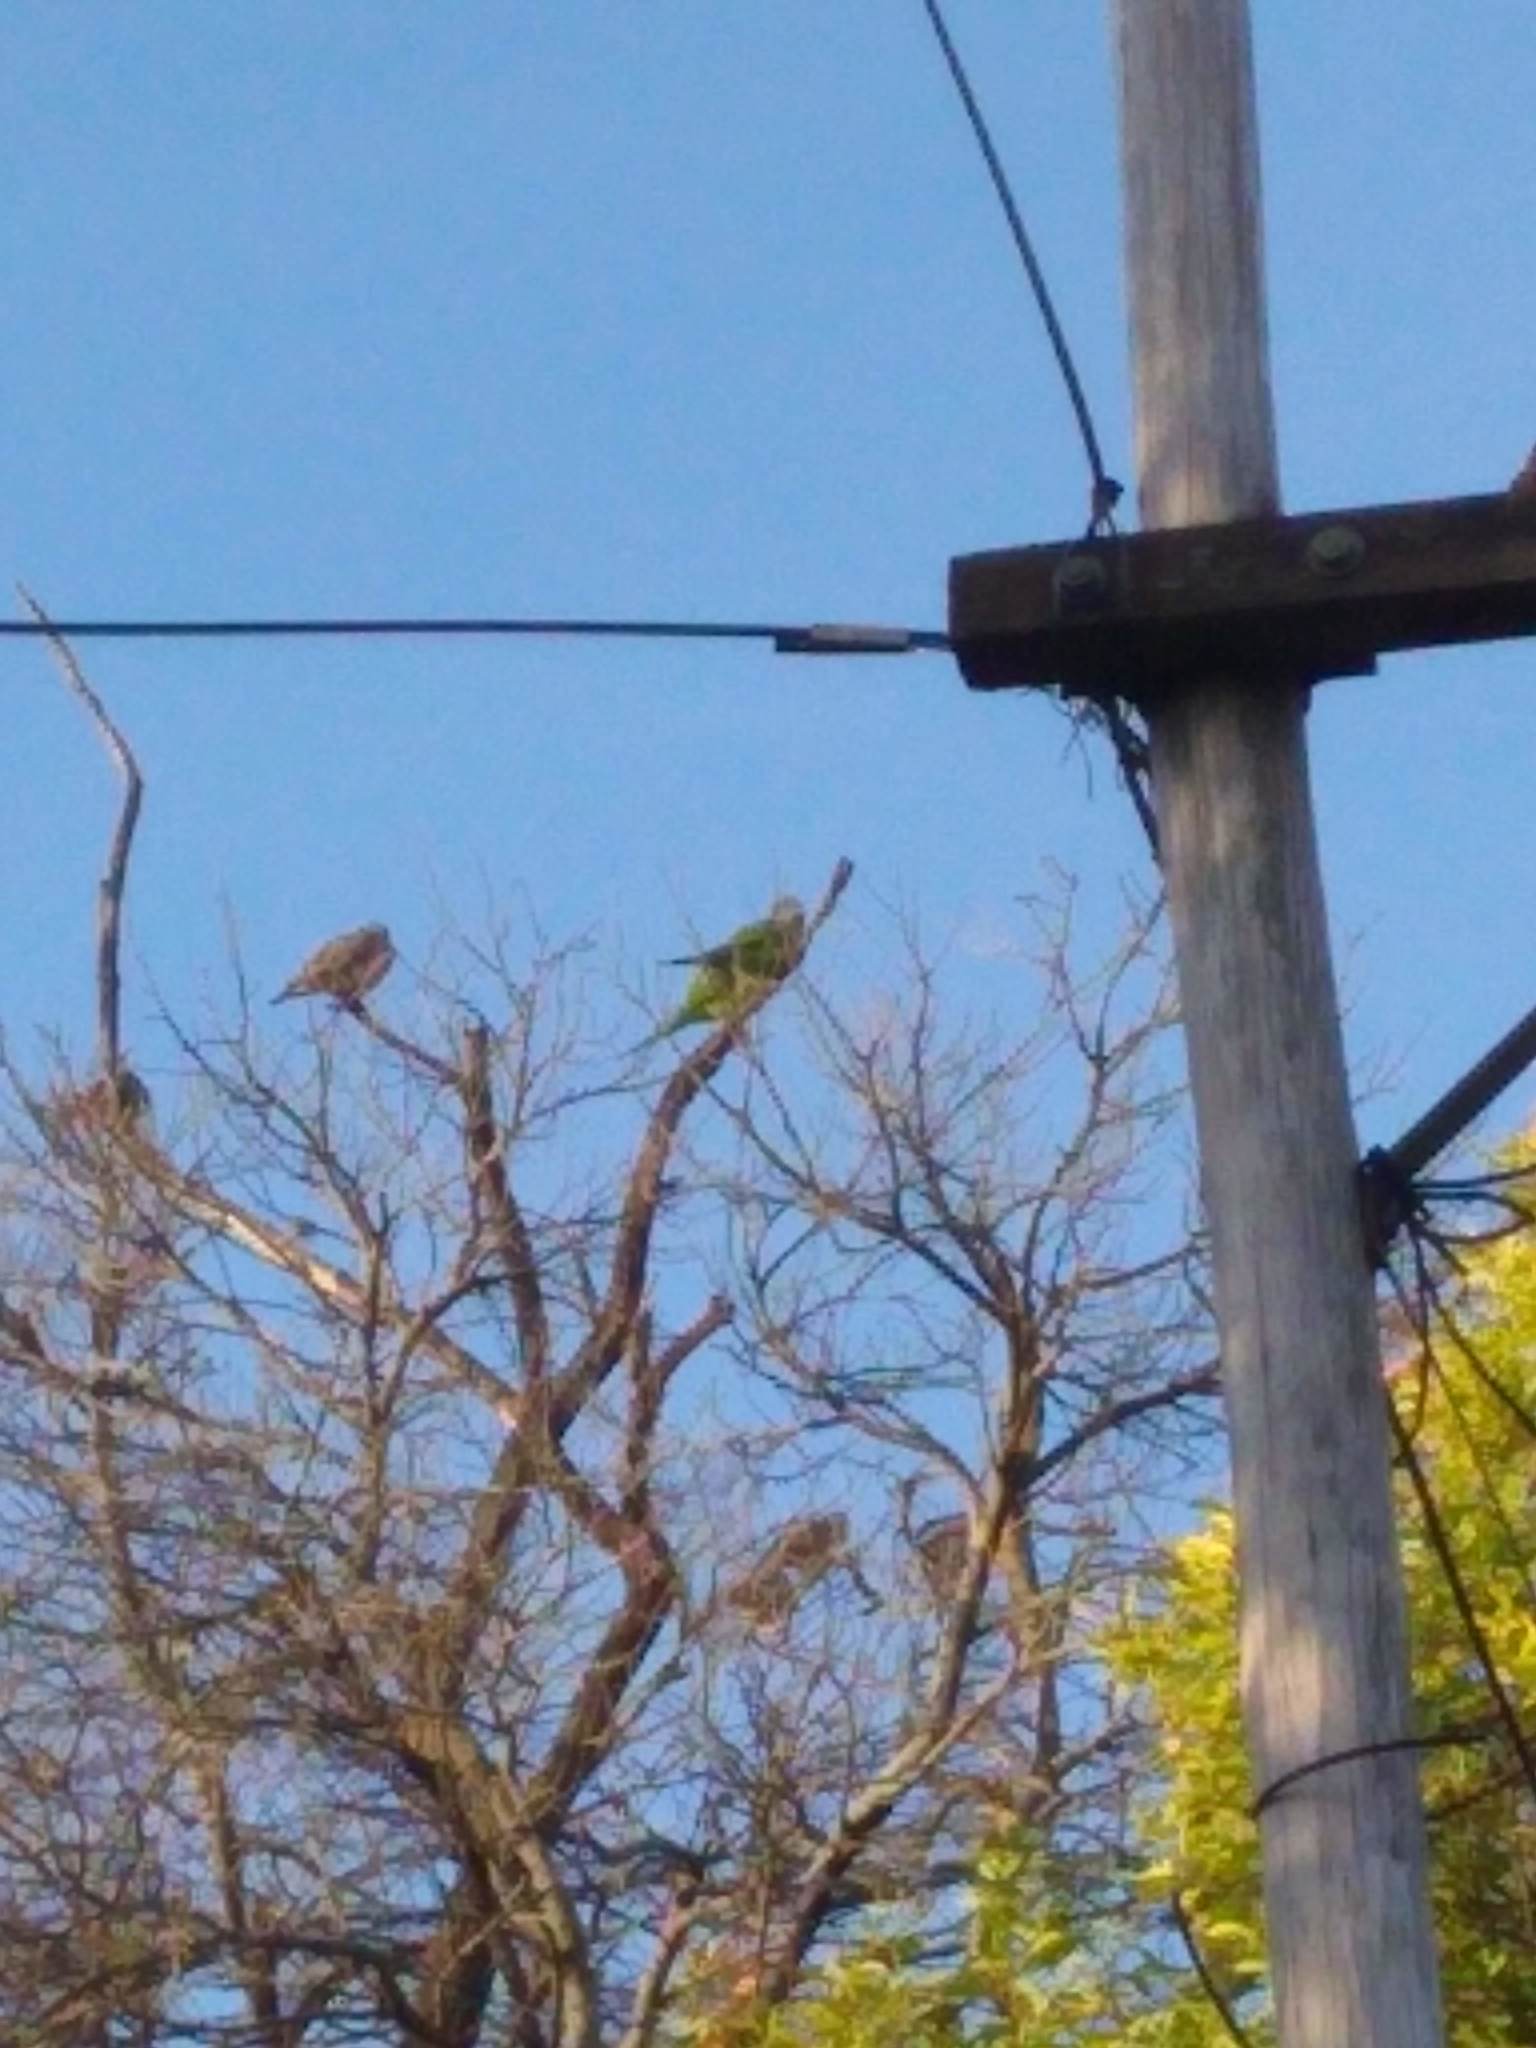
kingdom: Animalia
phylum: Chordata
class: Aves
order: Psittaciformes
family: Psittacidae
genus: Myiopsitta
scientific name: Myiopsitta monachus
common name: Monk parakeet
